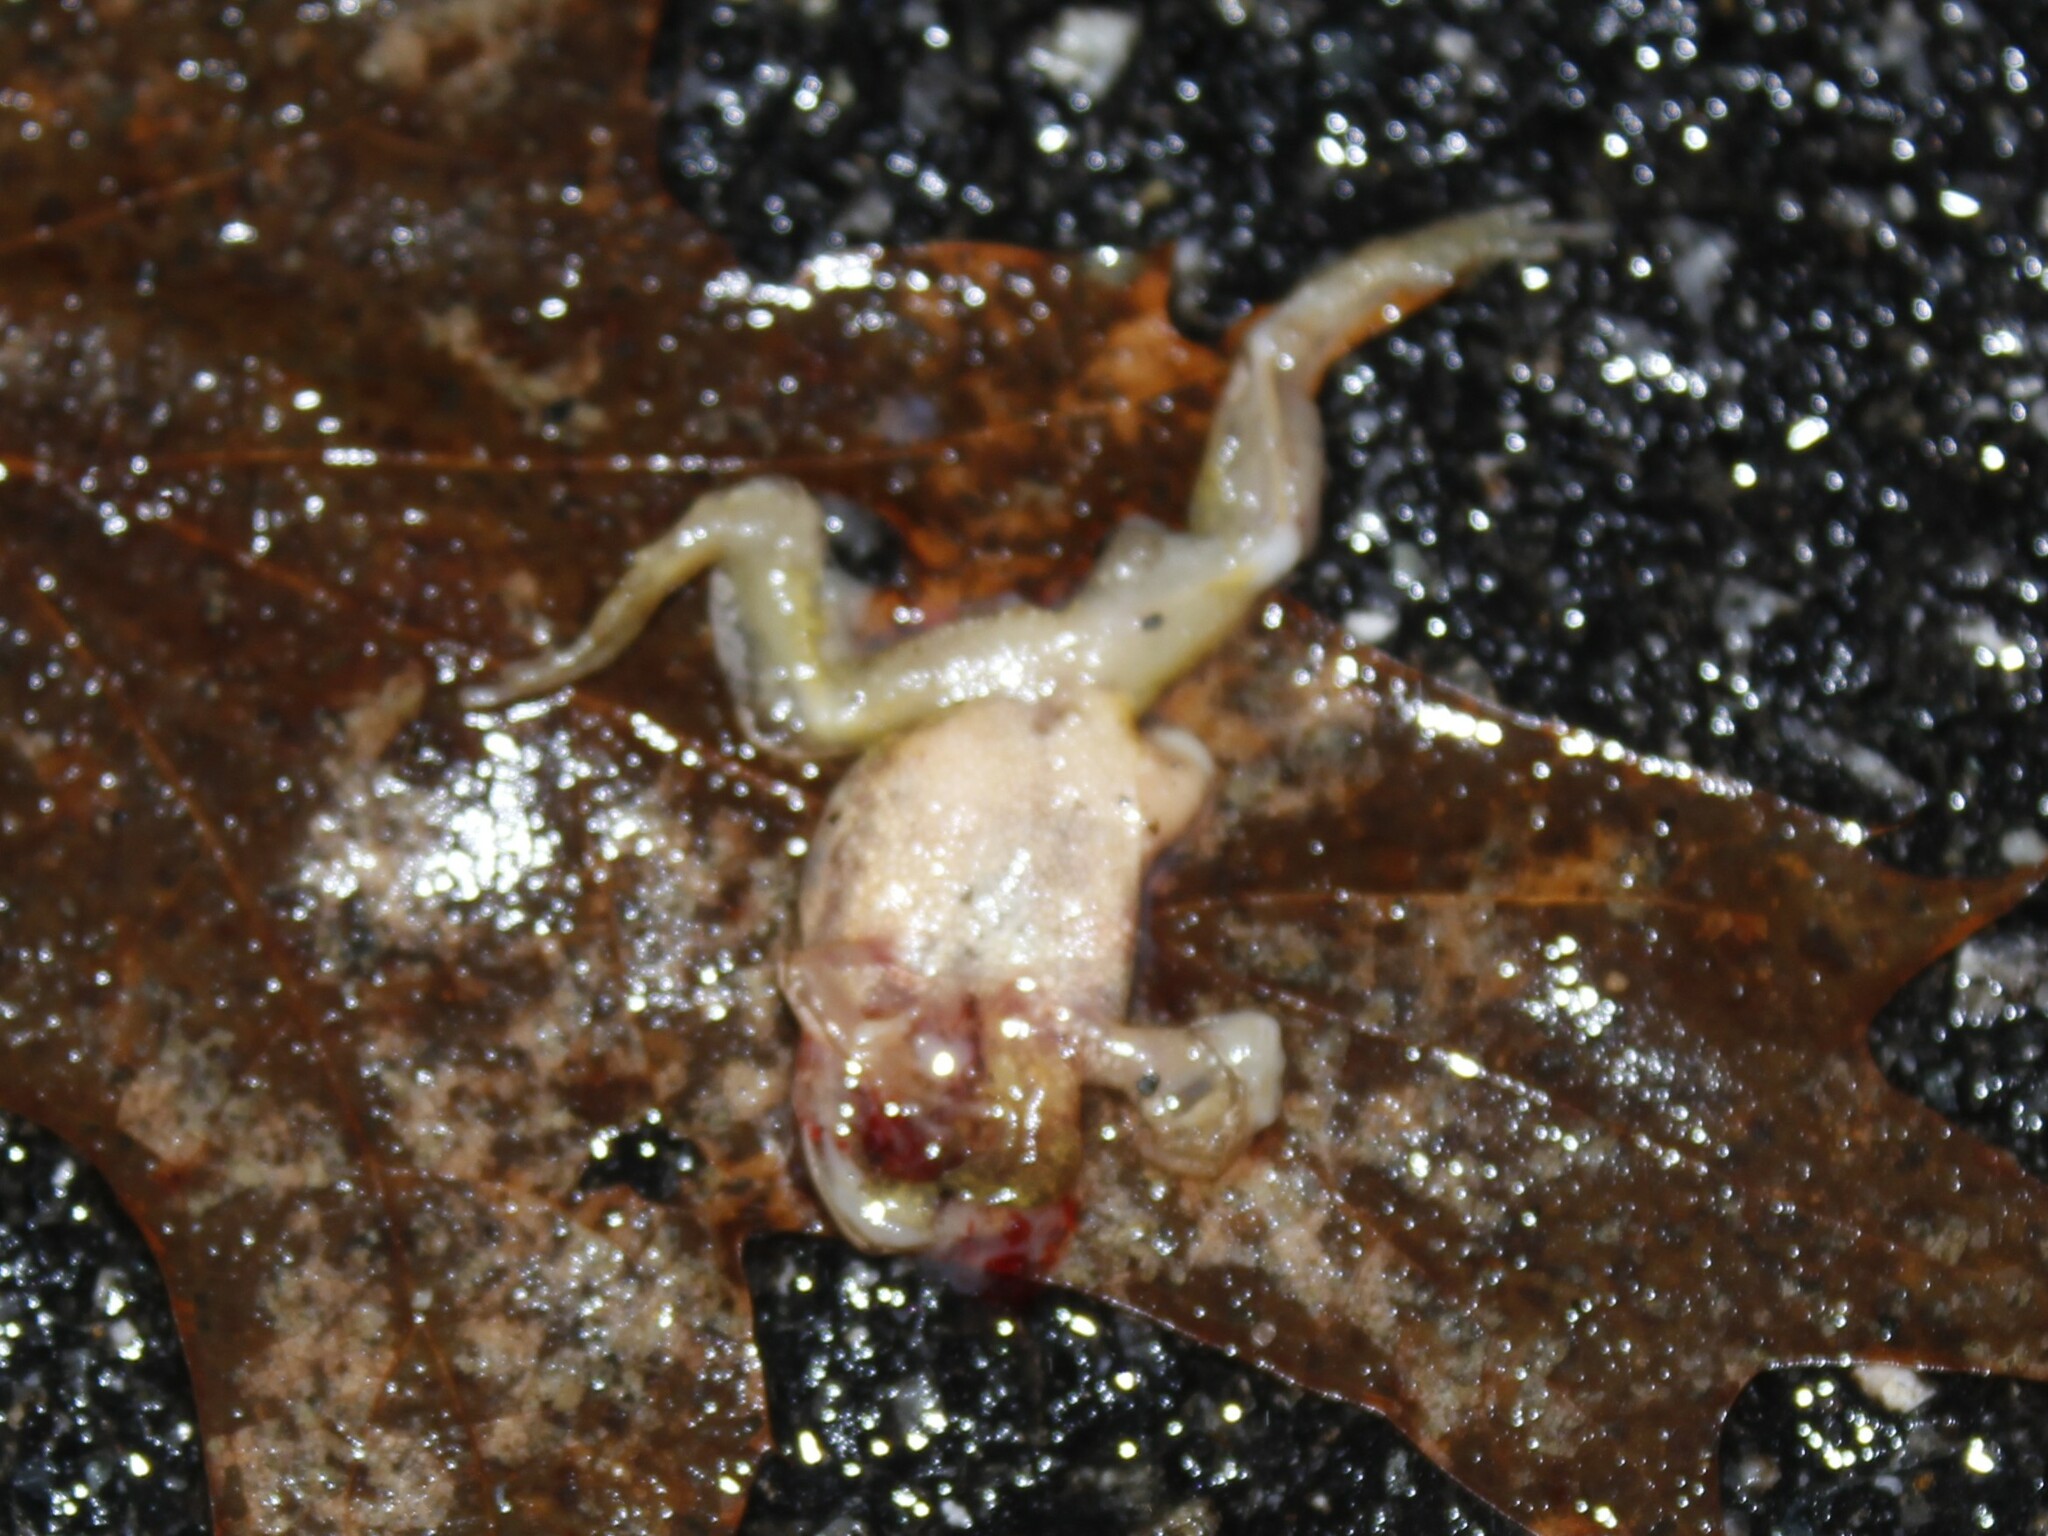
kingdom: Animalia
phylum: Chordata
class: Amphibia
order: Anura
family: Hylidae
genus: Pseudacris
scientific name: Pseudacris crucifer
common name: Spring peeper
